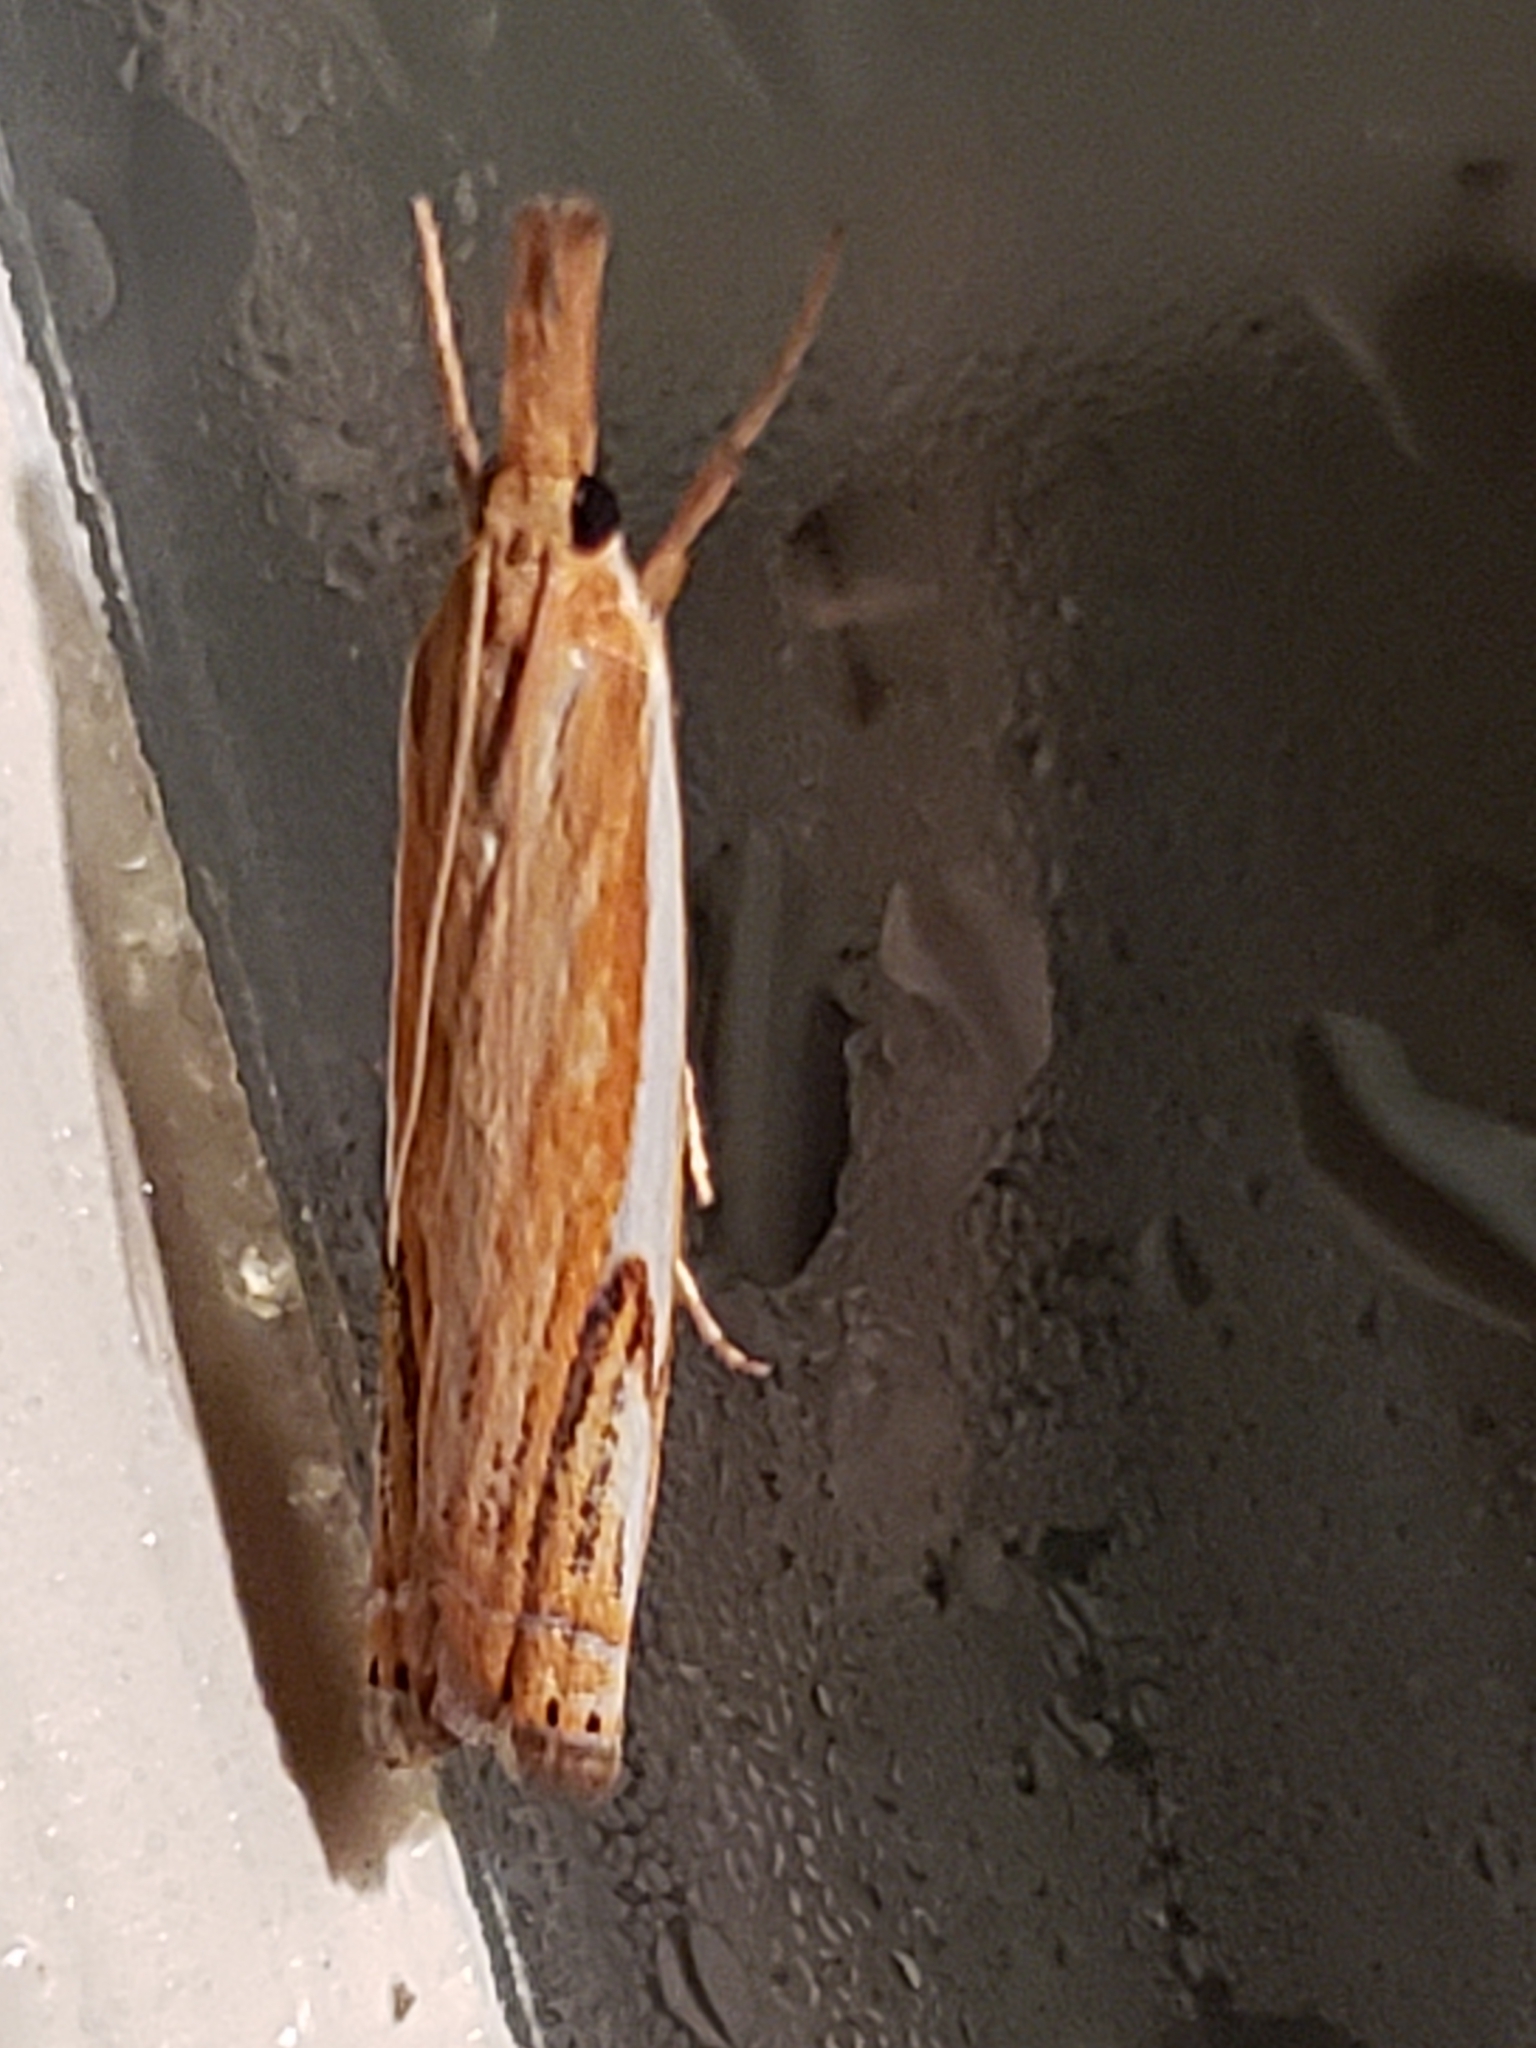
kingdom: Animalia
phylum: Arthropoda
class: Insecta
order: Lepidoptera
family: Crambidae
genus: Crambus
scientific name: Crambus agitatellus
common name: Double-banded grass-veneer
